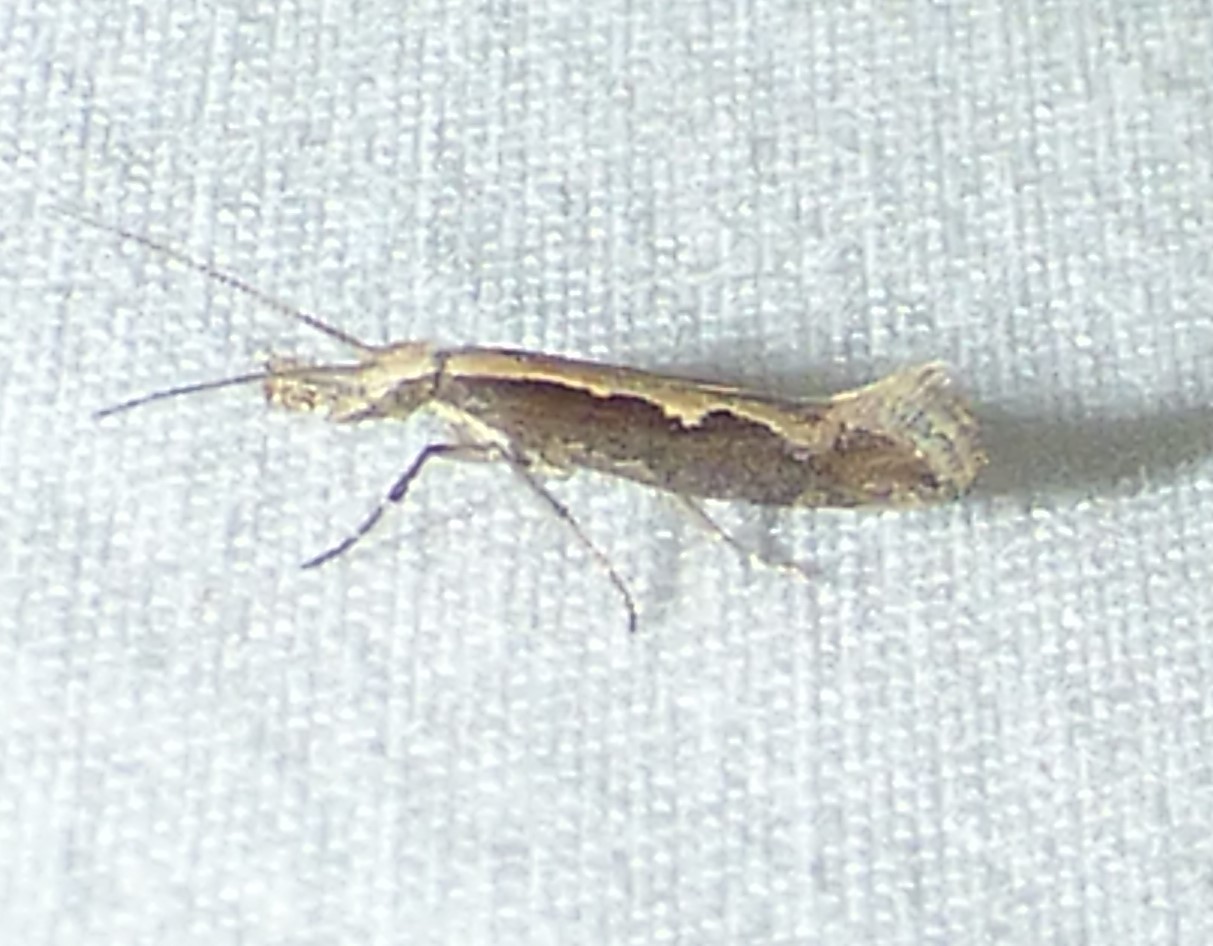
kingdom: Animalia
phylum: Arthropoda
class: Insecta
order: Lepidoptera
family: Plutellidae
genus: Plutella
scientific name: Plutella xylostella
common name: Diamond-back moth
